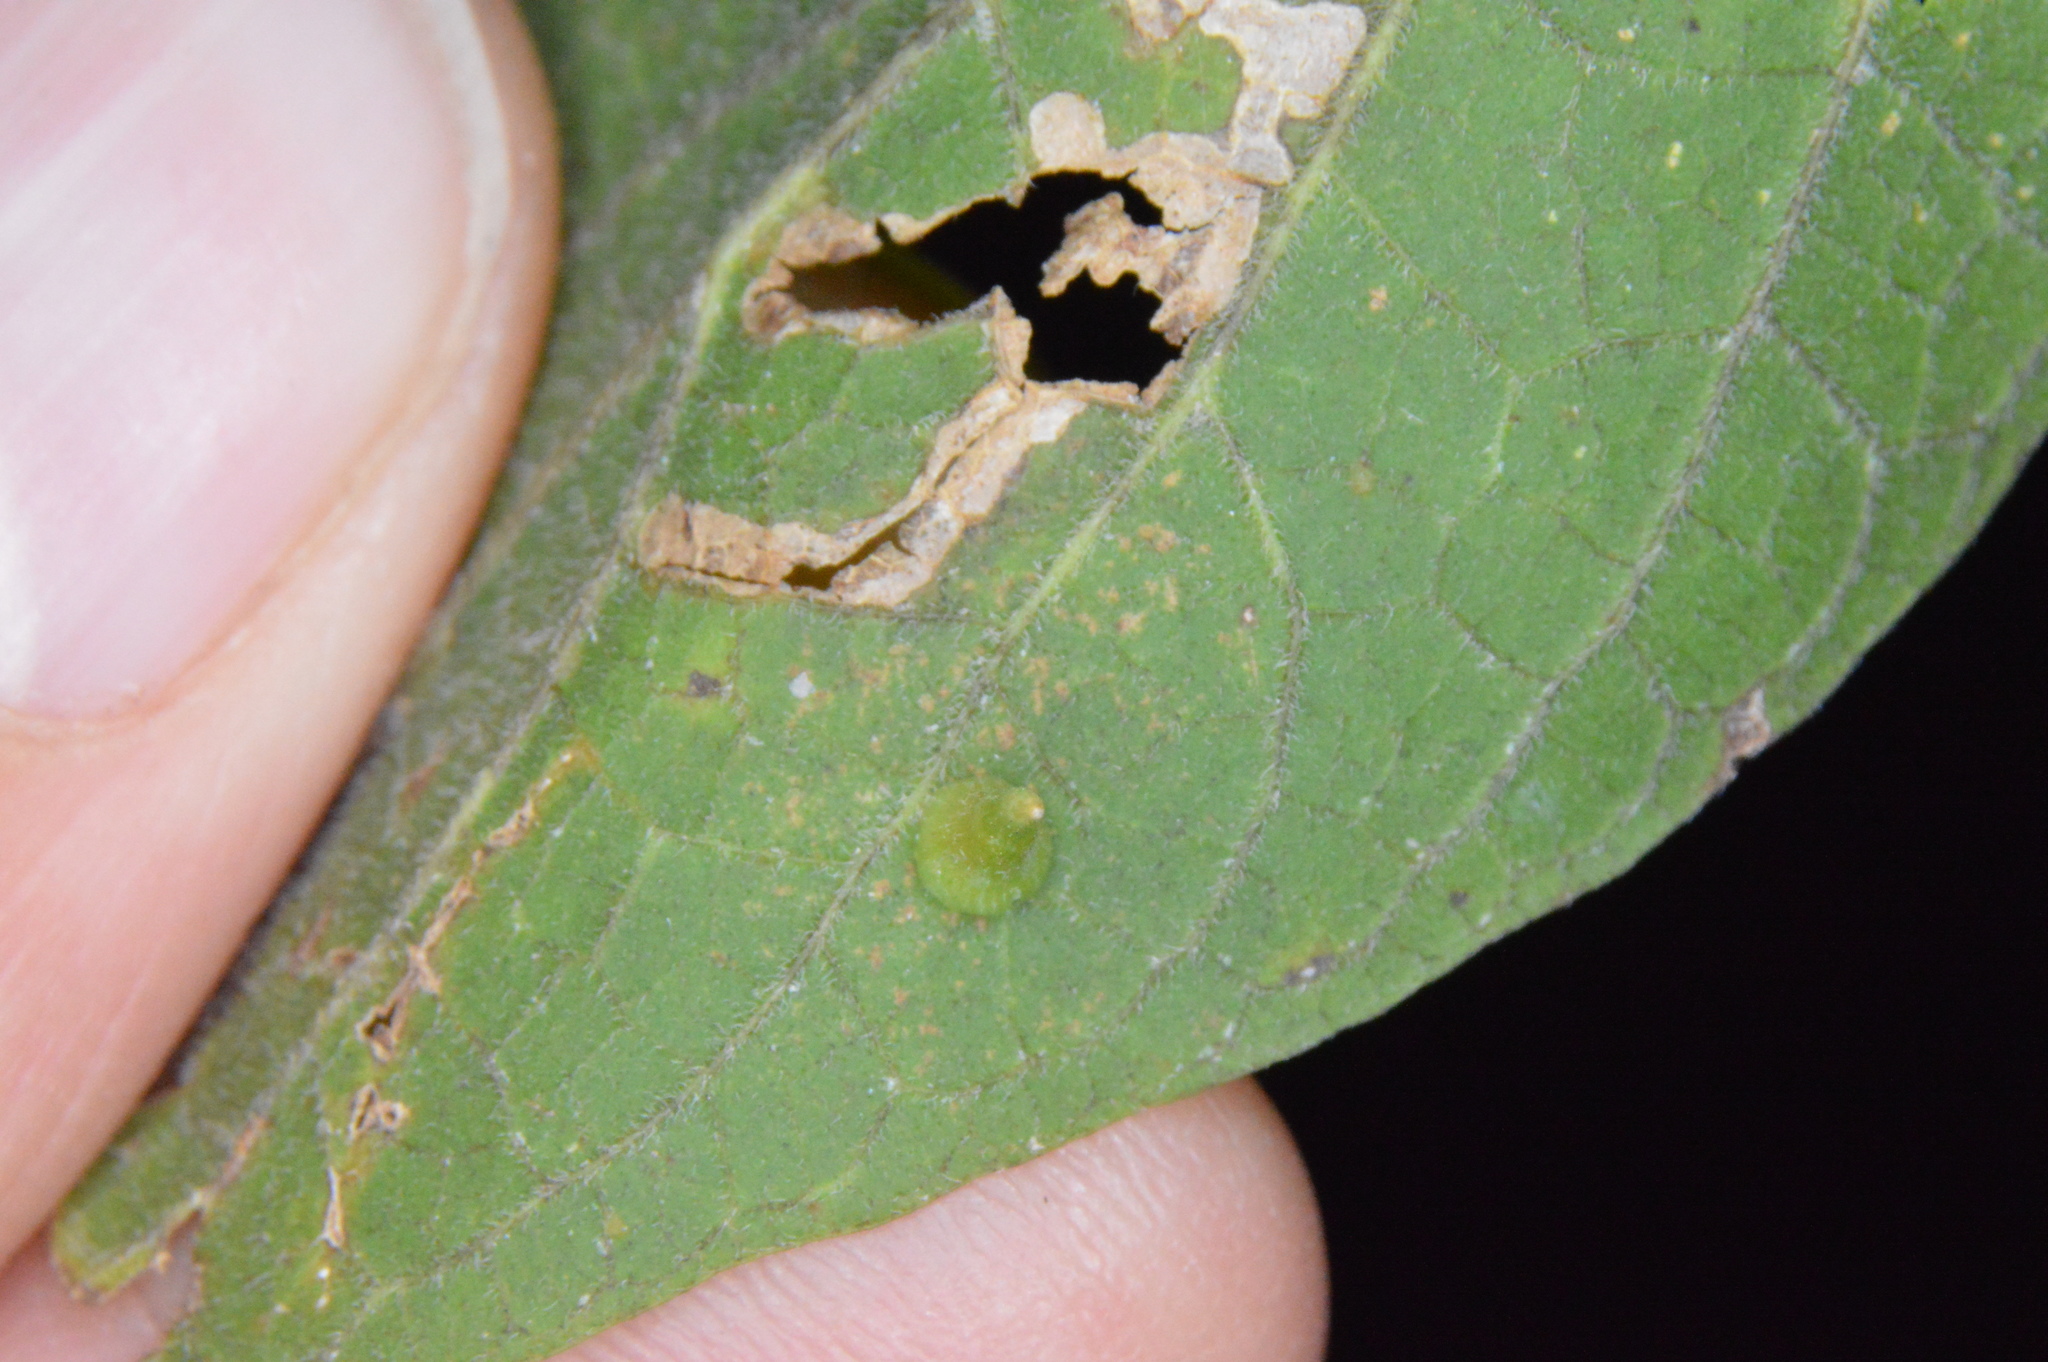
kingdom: Animalia
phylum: Arthropoda
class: Insecta
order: Diptera
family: Cecidomyiidae
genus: Celticecis
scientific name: Celticecis subulata
